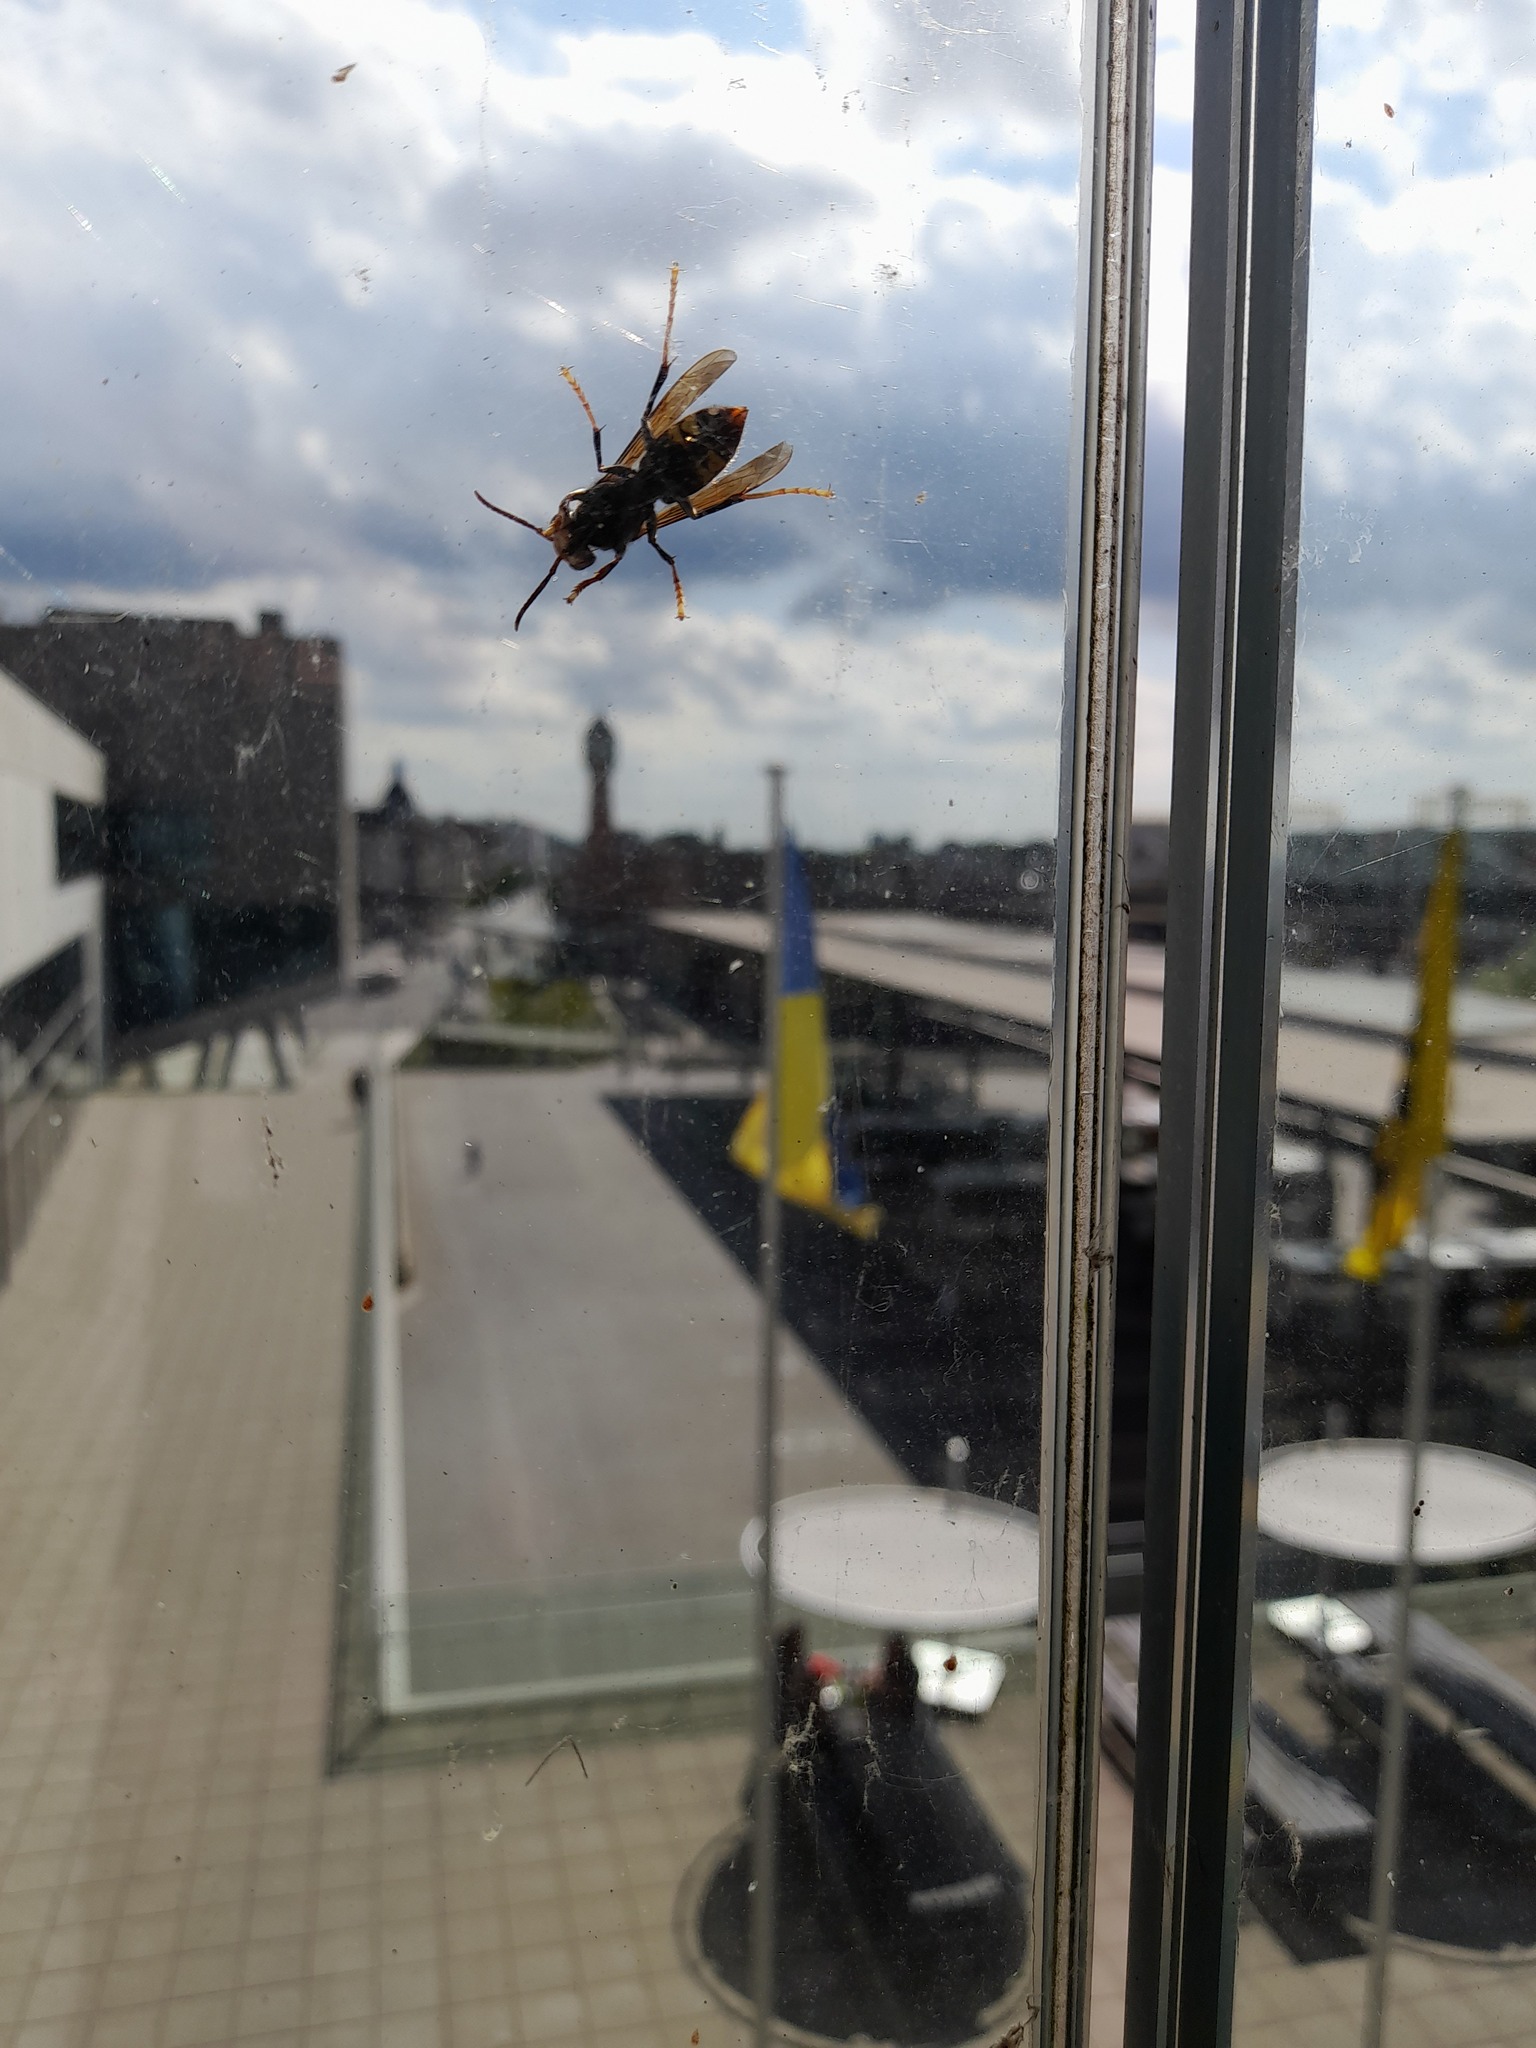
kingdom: Animalia
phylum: Arthropoda
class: Insecta
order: Hymenoptera
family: Vespidae
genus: Vespa
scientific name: Vespa velutina
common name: Asian hornet
